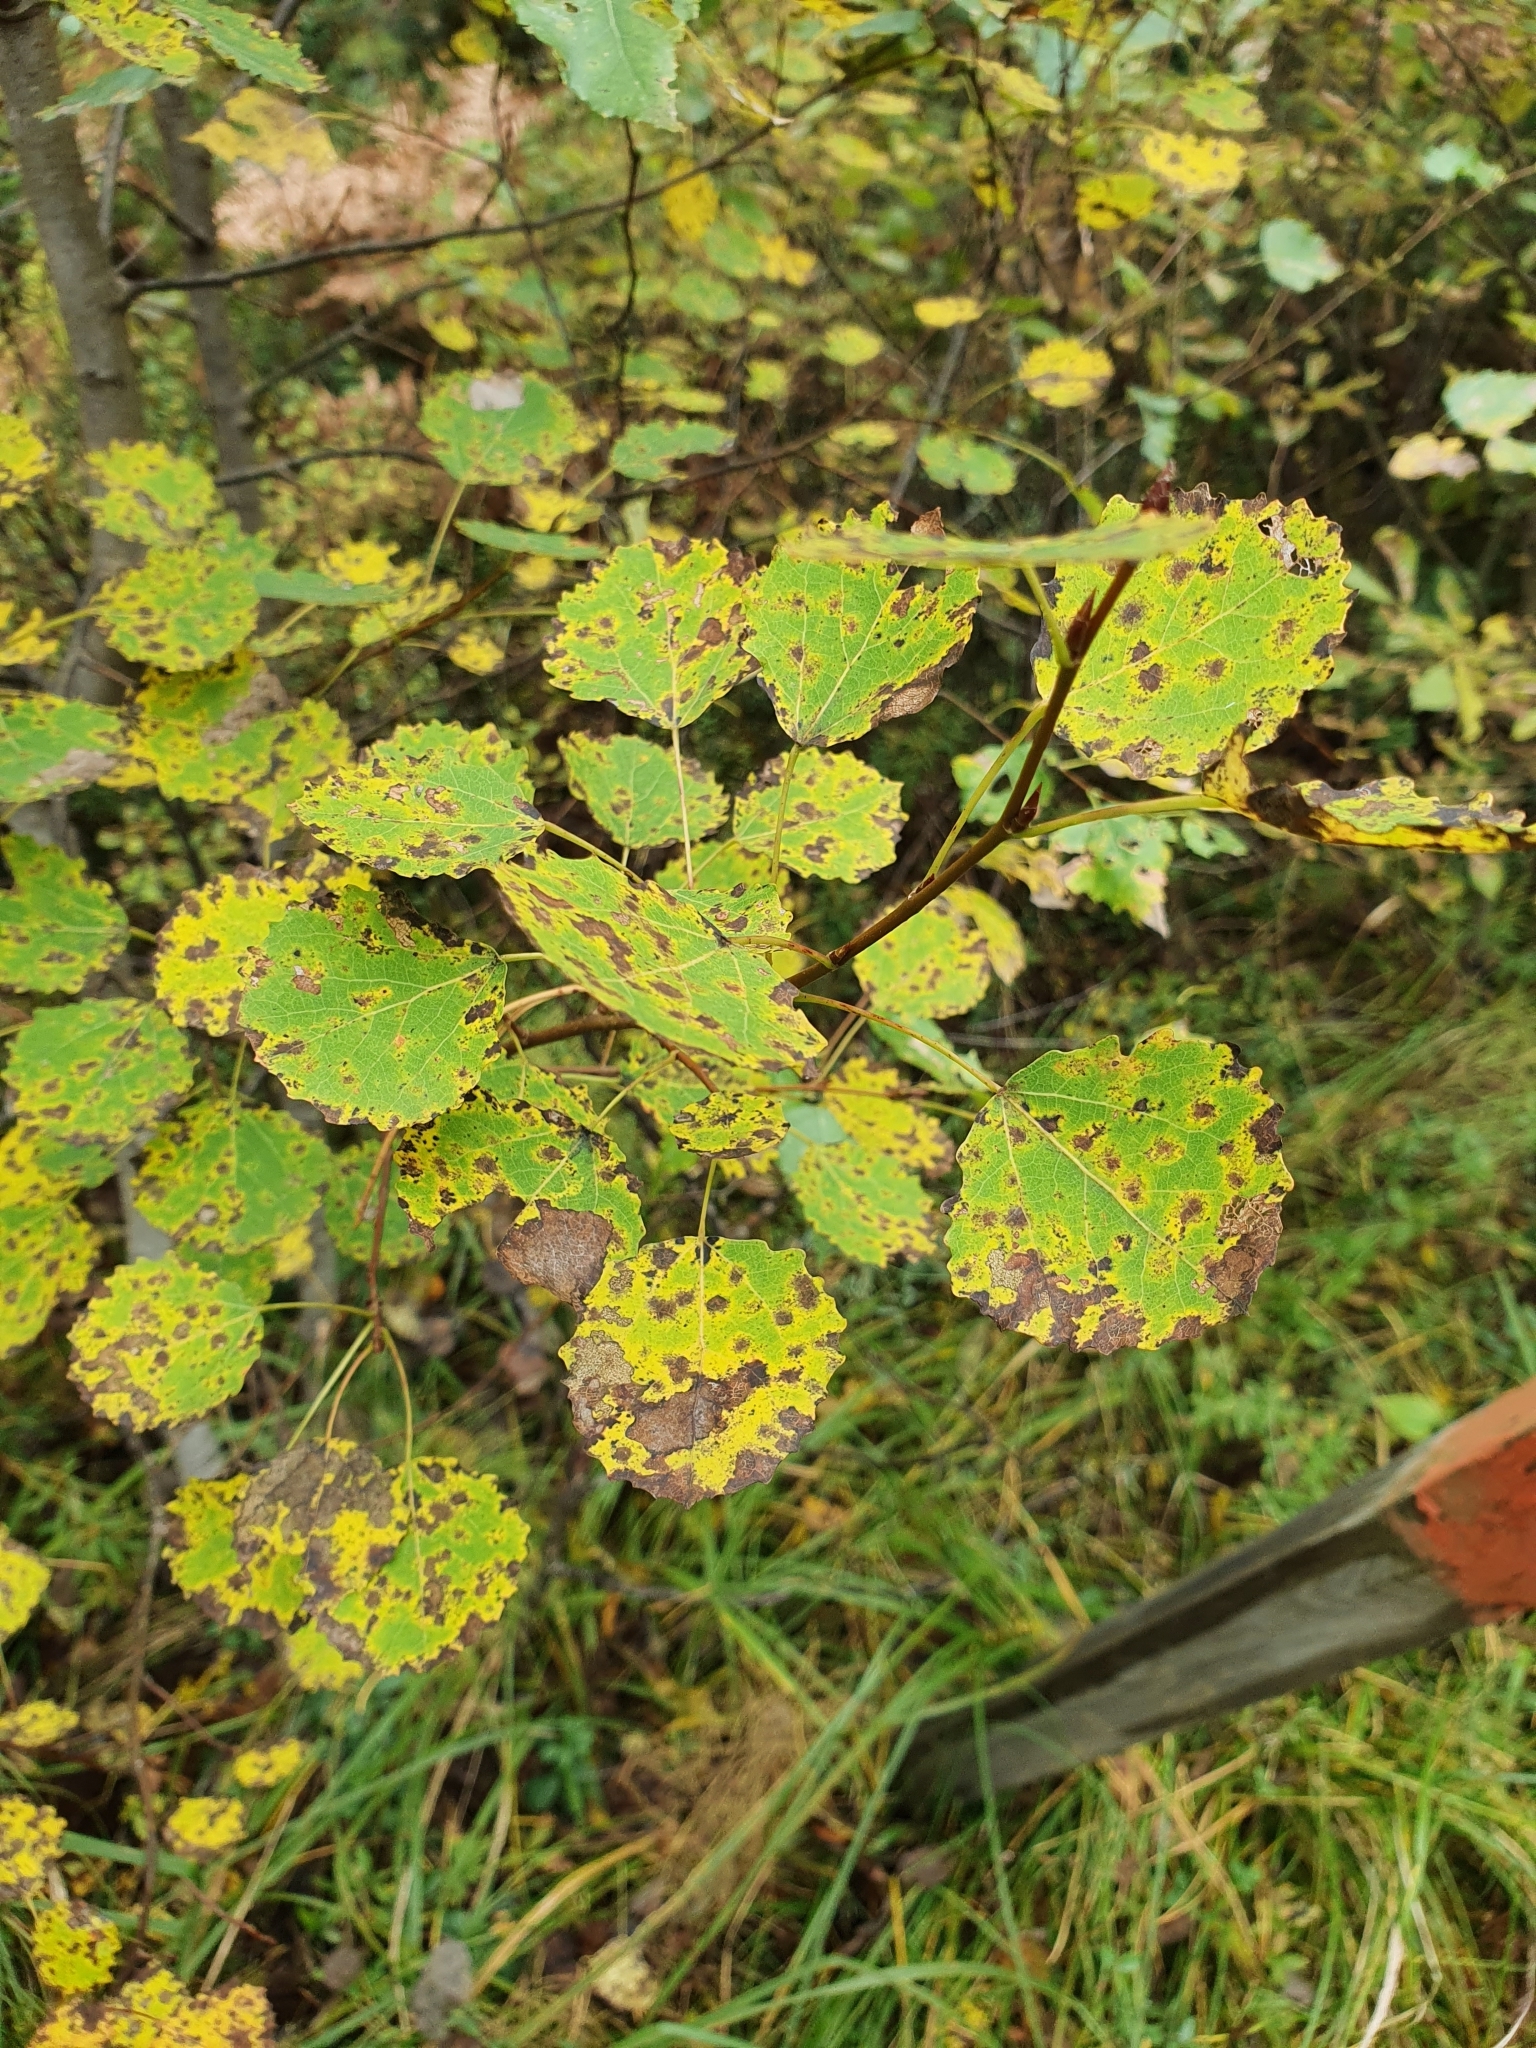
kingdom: Plantae
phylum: Tracheophyta
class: Magnoliopsida
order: Malpighiales
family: Salicaceae
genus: Populus
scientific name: Populus tremula
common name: European aspen
